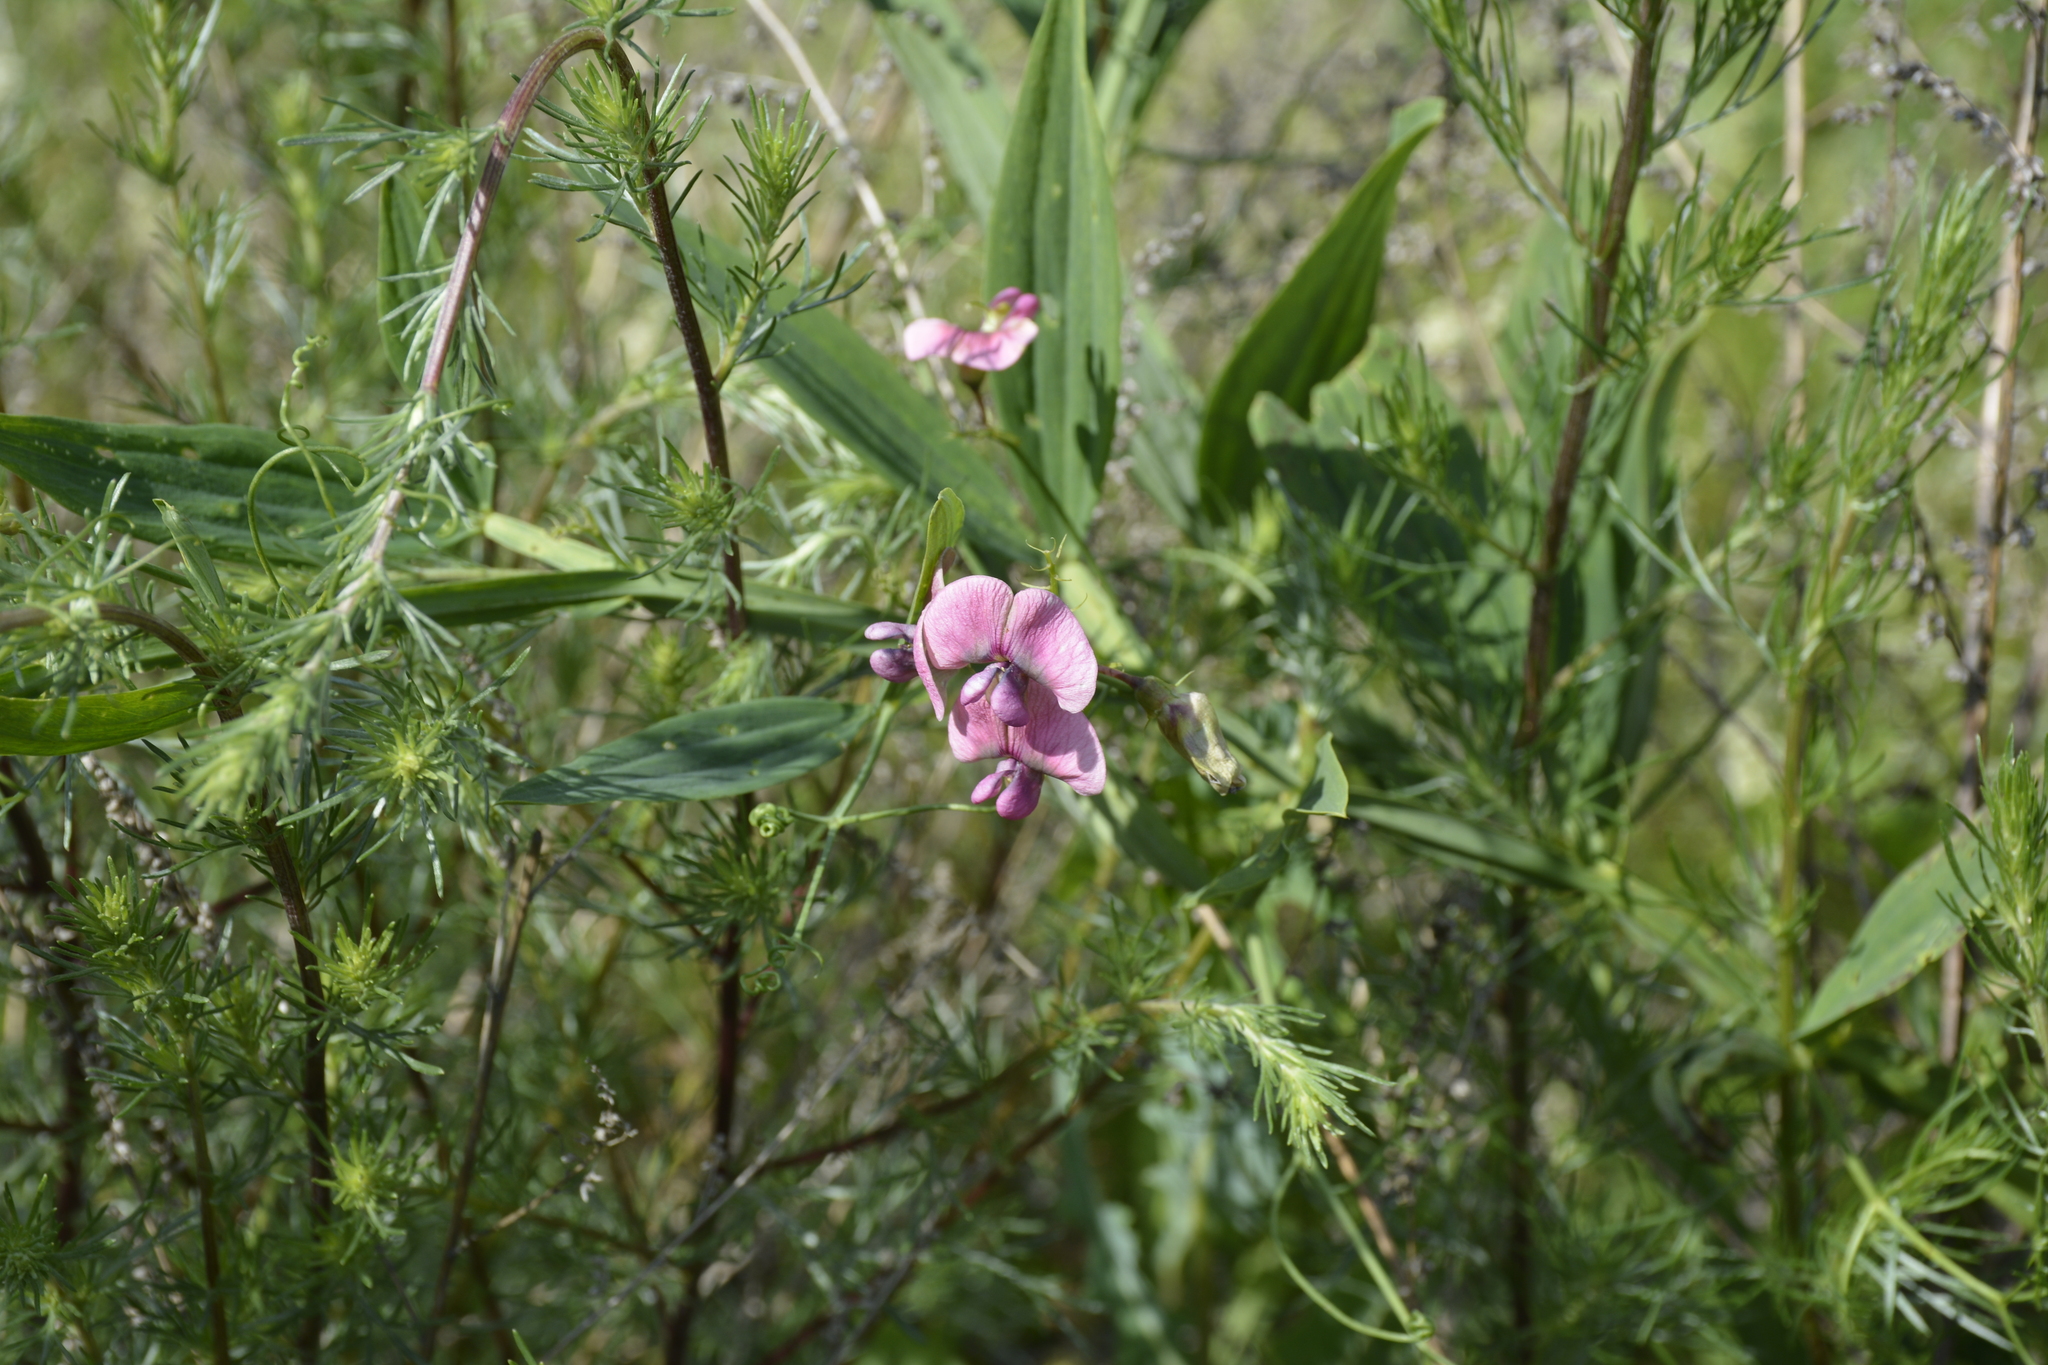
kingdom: Plantae
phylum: Tracheophyta
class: Magnoliopsida
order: Fabales
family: Fabaceae
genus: Lathyrus
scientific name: Lathyrus sylvestris
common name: Flat pea
